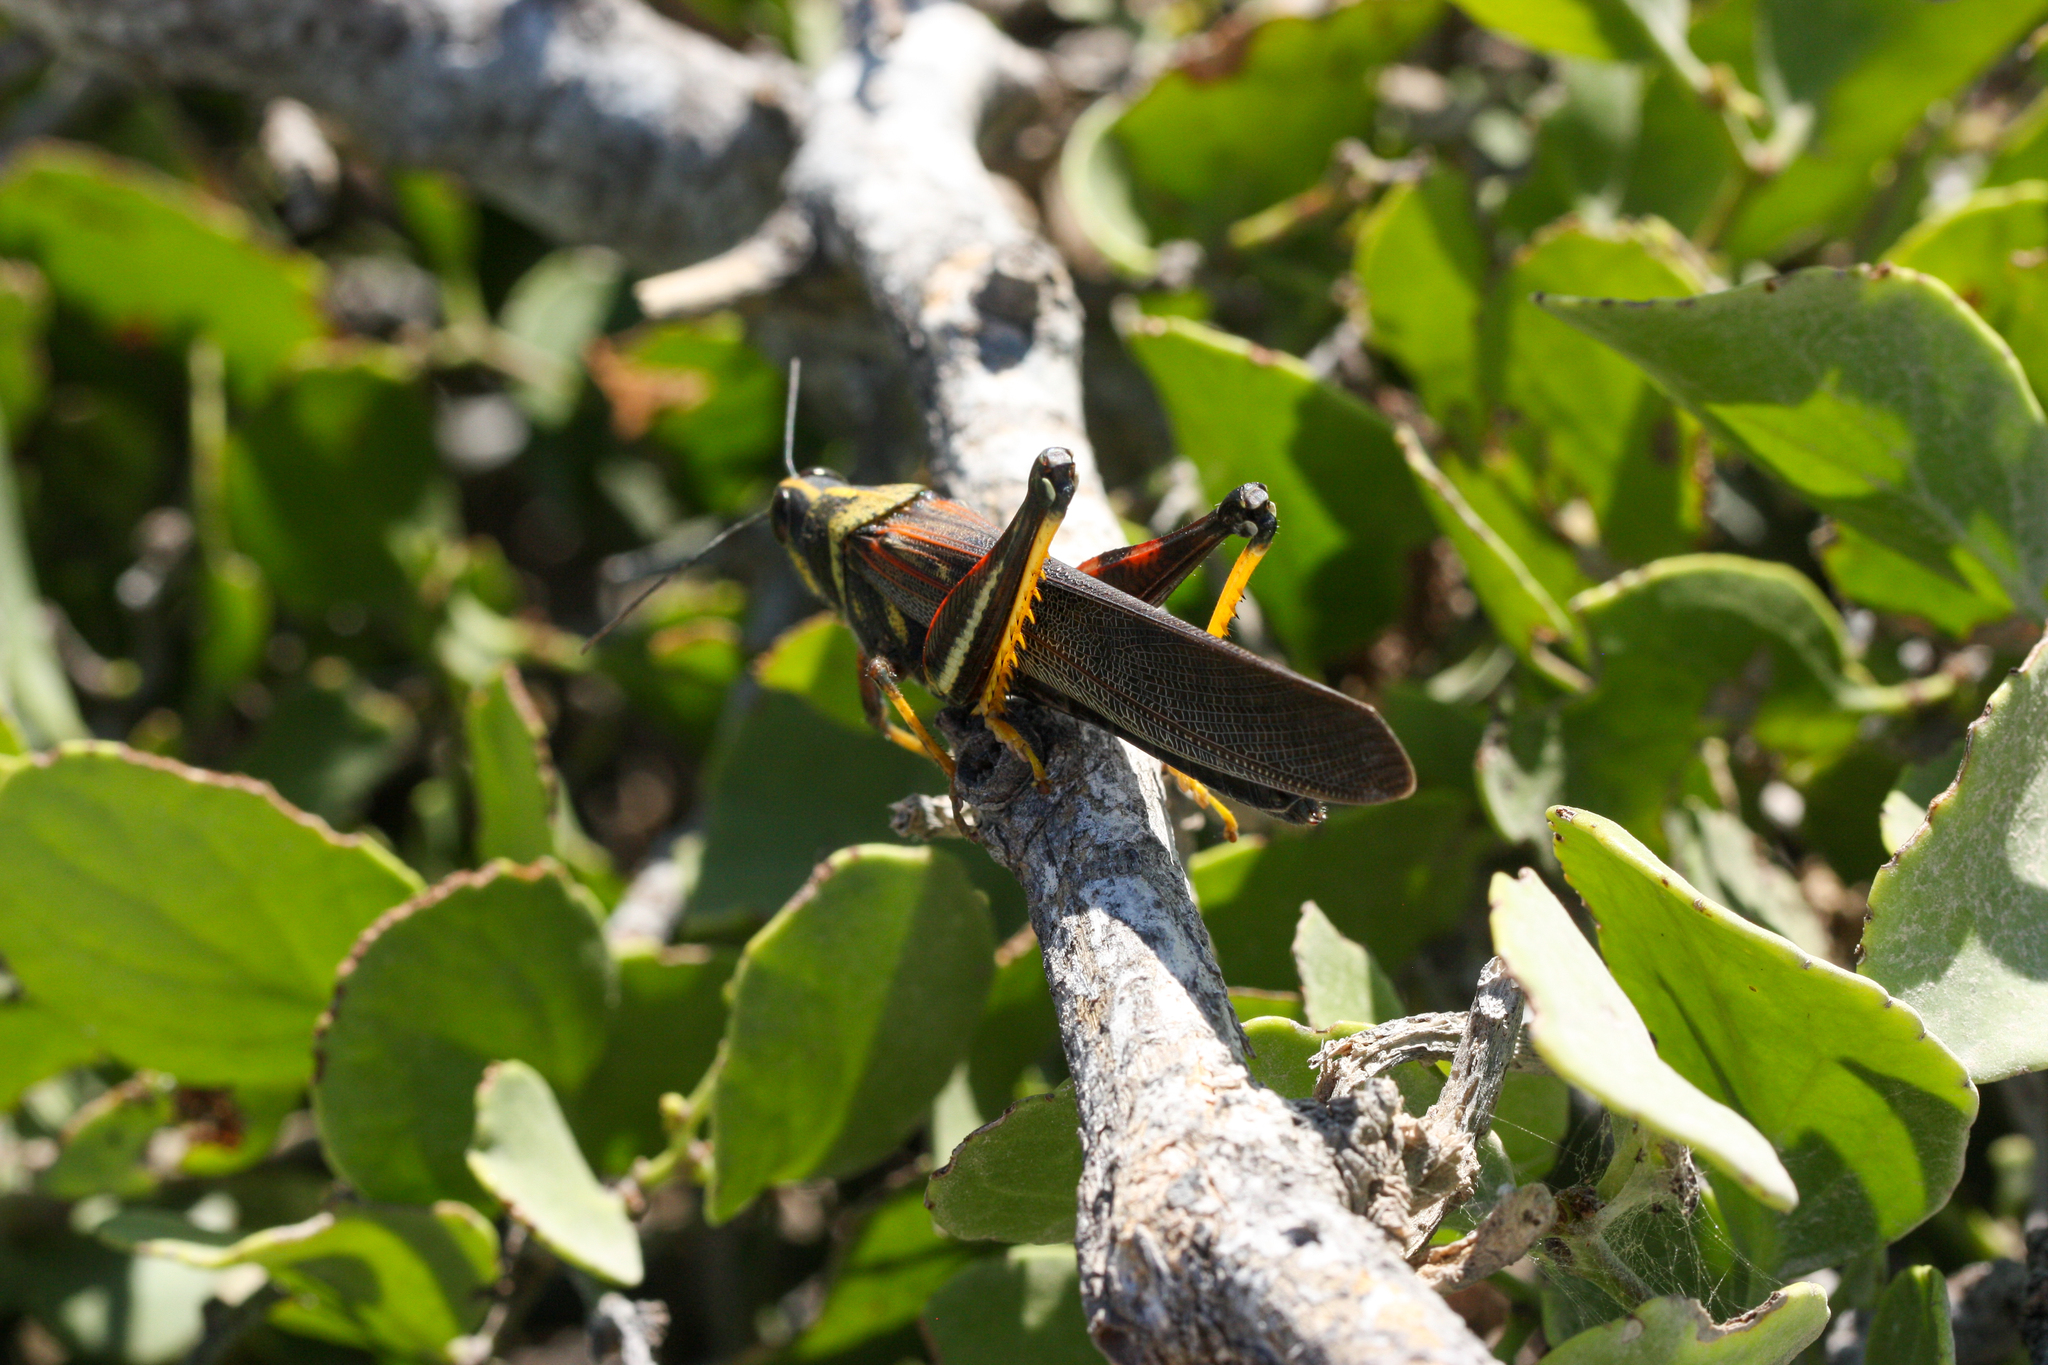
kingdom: Animalia
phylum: Arthropoda
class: Insecta
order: Orthoptera
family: Acrididae
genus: Schistocerca
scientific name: Schistocerca melanocera
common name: Large painted locust
